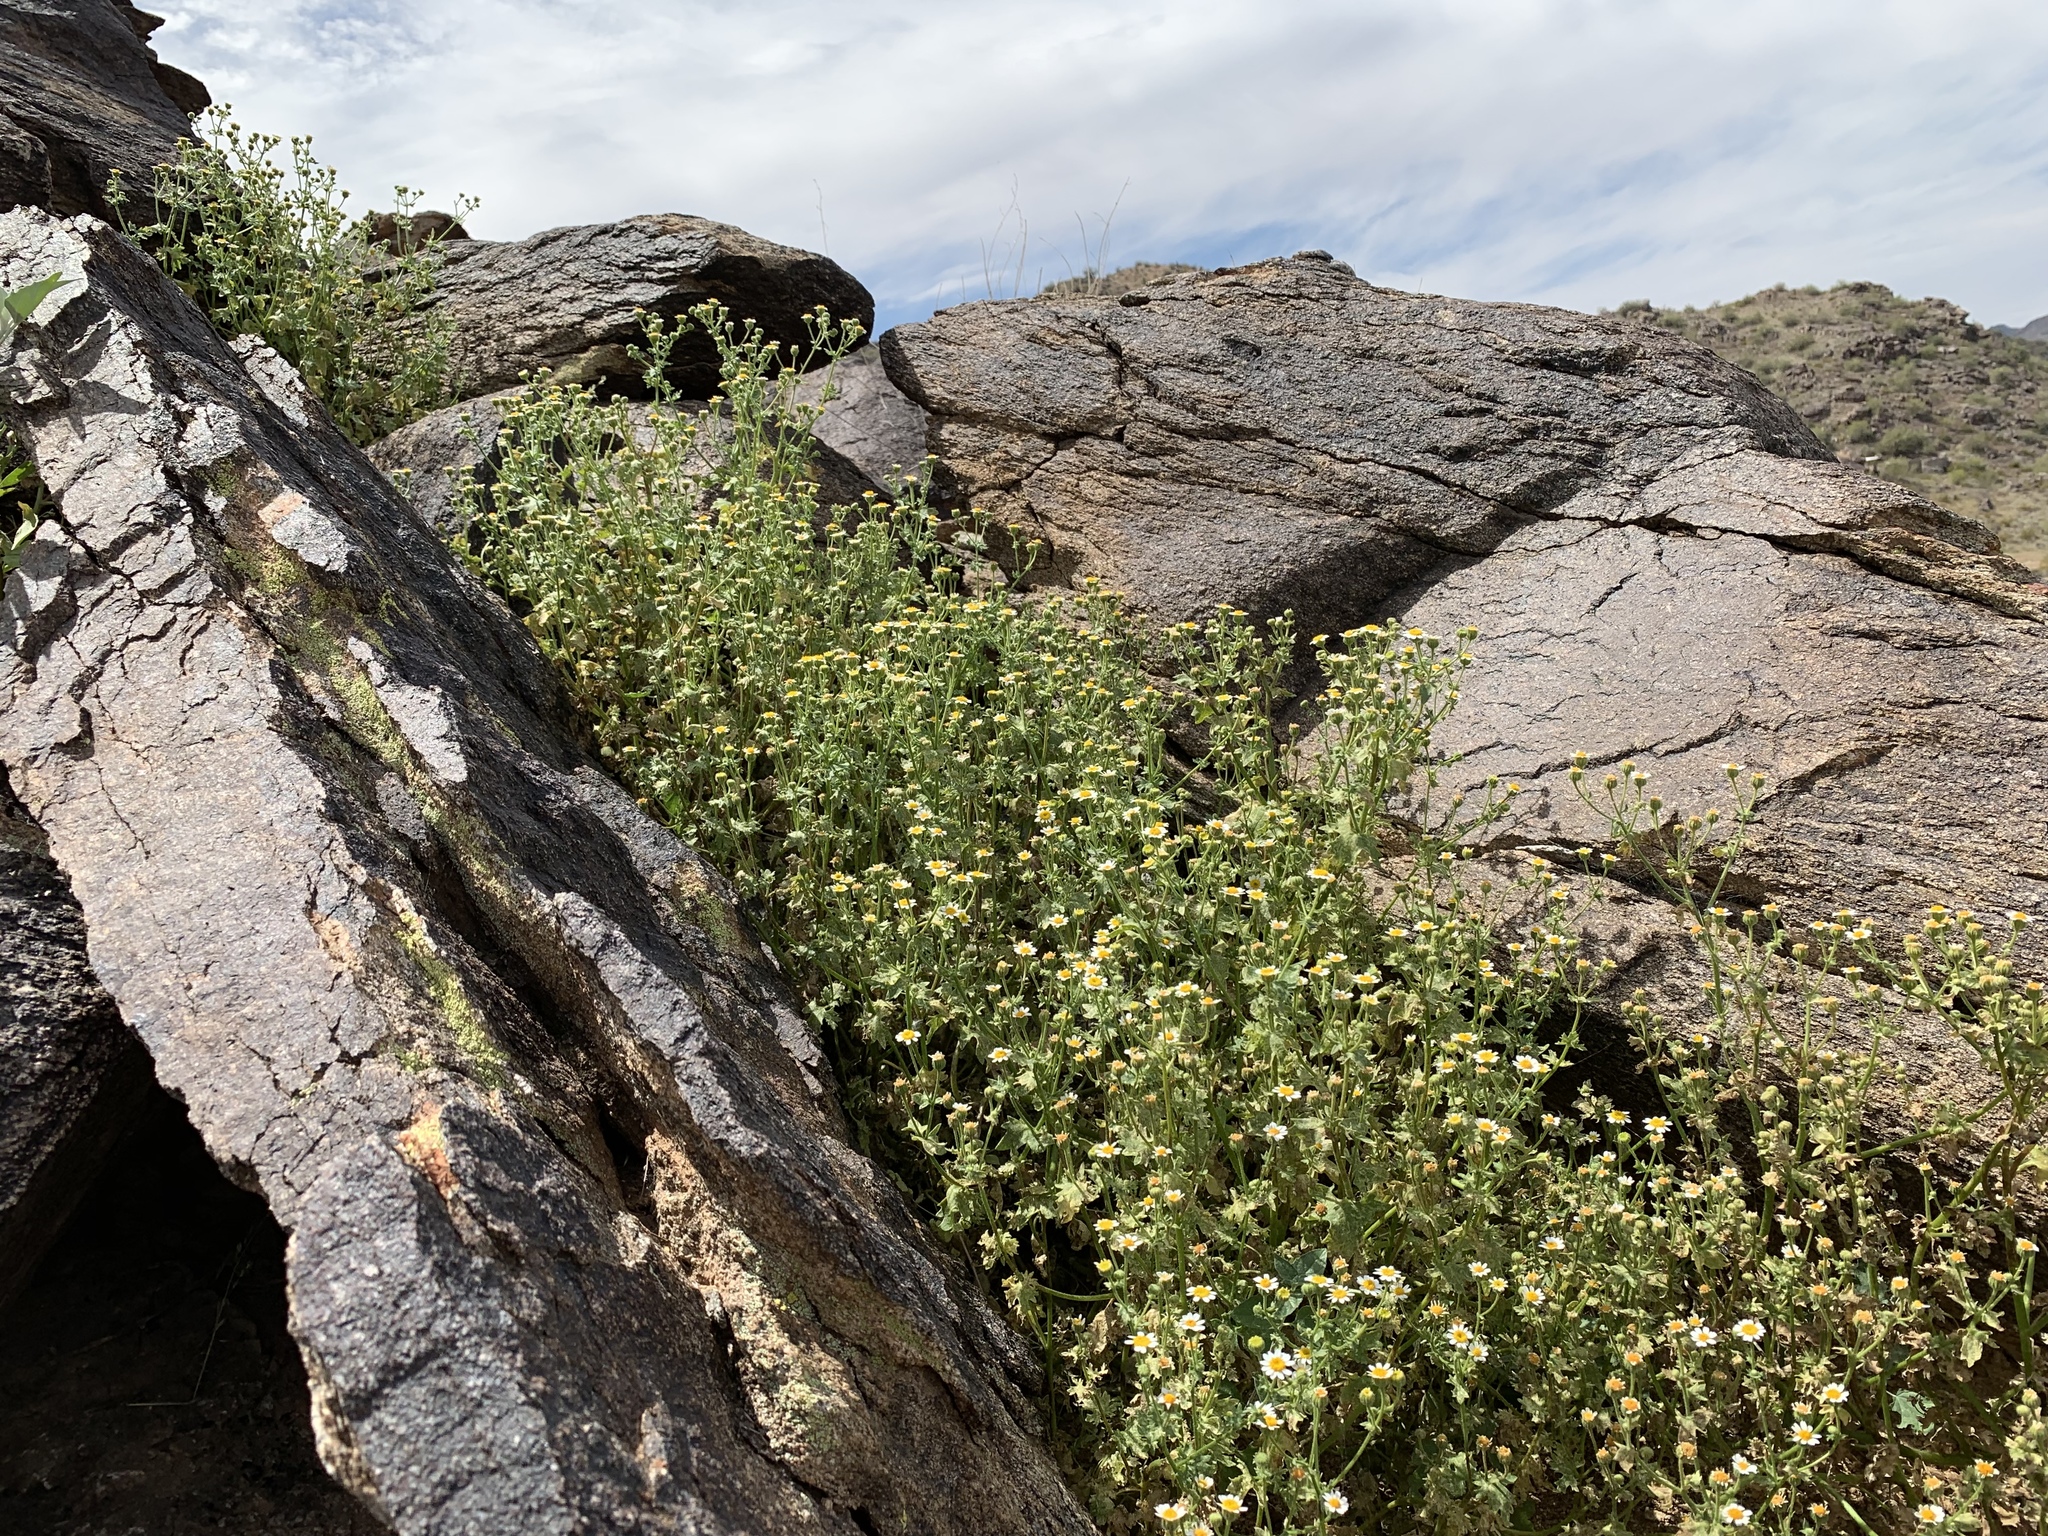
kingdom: Plantae
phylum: Tracheophyta
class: Magnoliopsida
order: Asterales
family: Asteraceae
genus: Laphamia
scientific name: Laphamia emoryi
